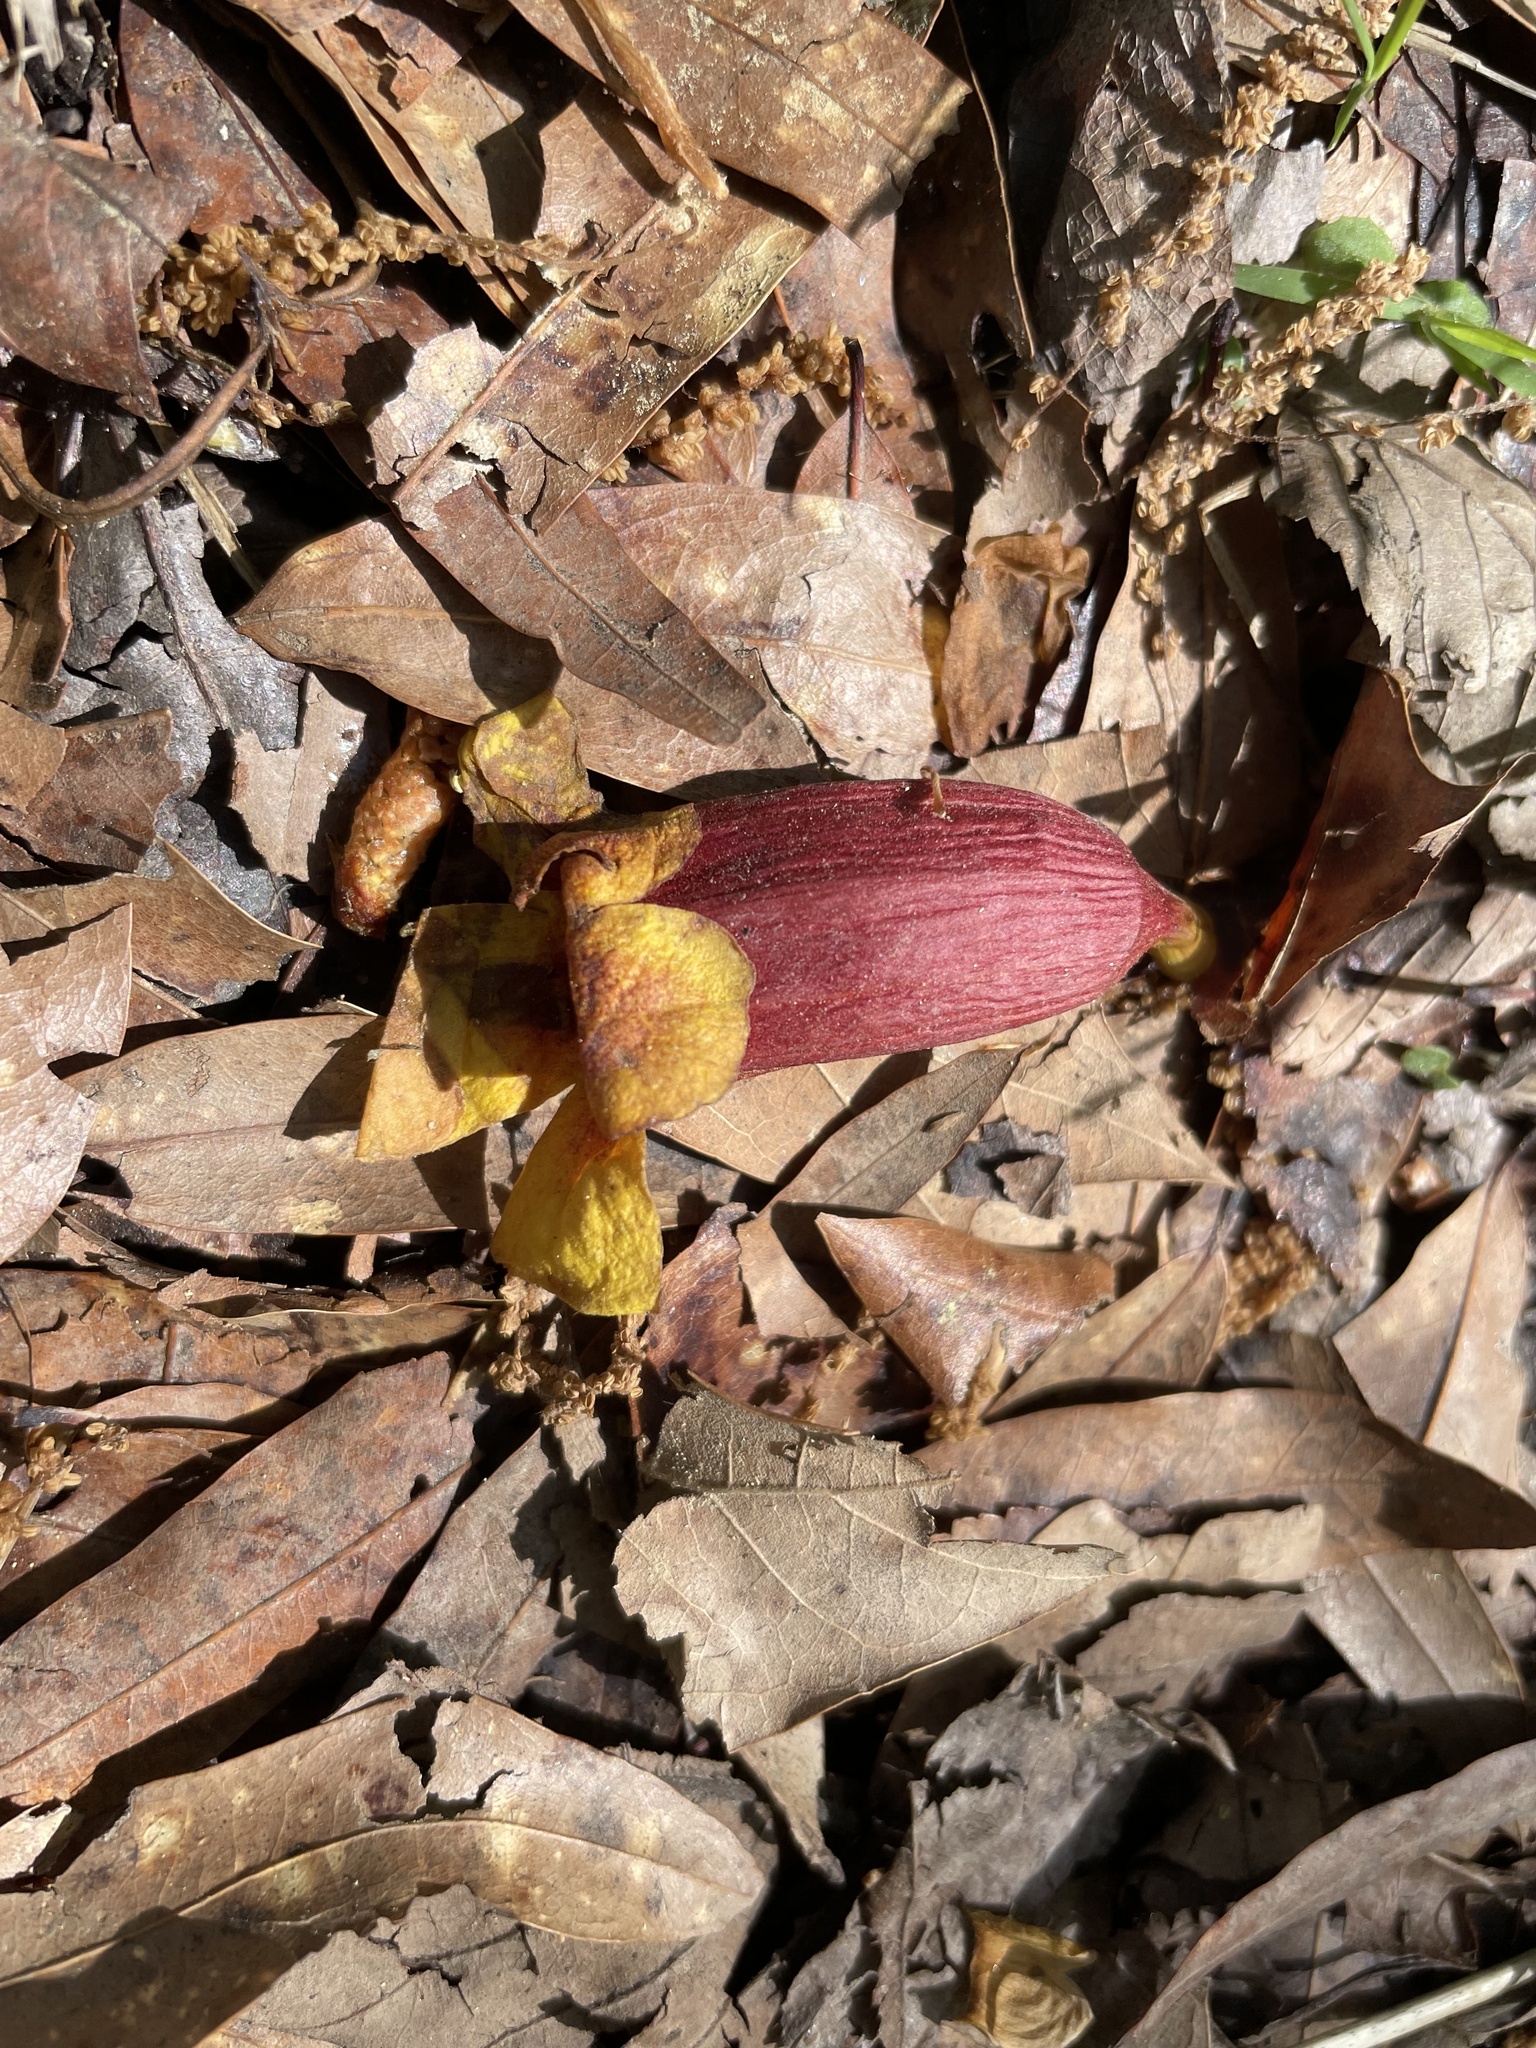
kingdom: Plantae
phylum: Tracheophyta
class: Magnoliopsida
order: Lamiales
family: Bignoniaceae
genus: Bignonia
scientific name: Bignonia capreolata
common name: Crossvine
